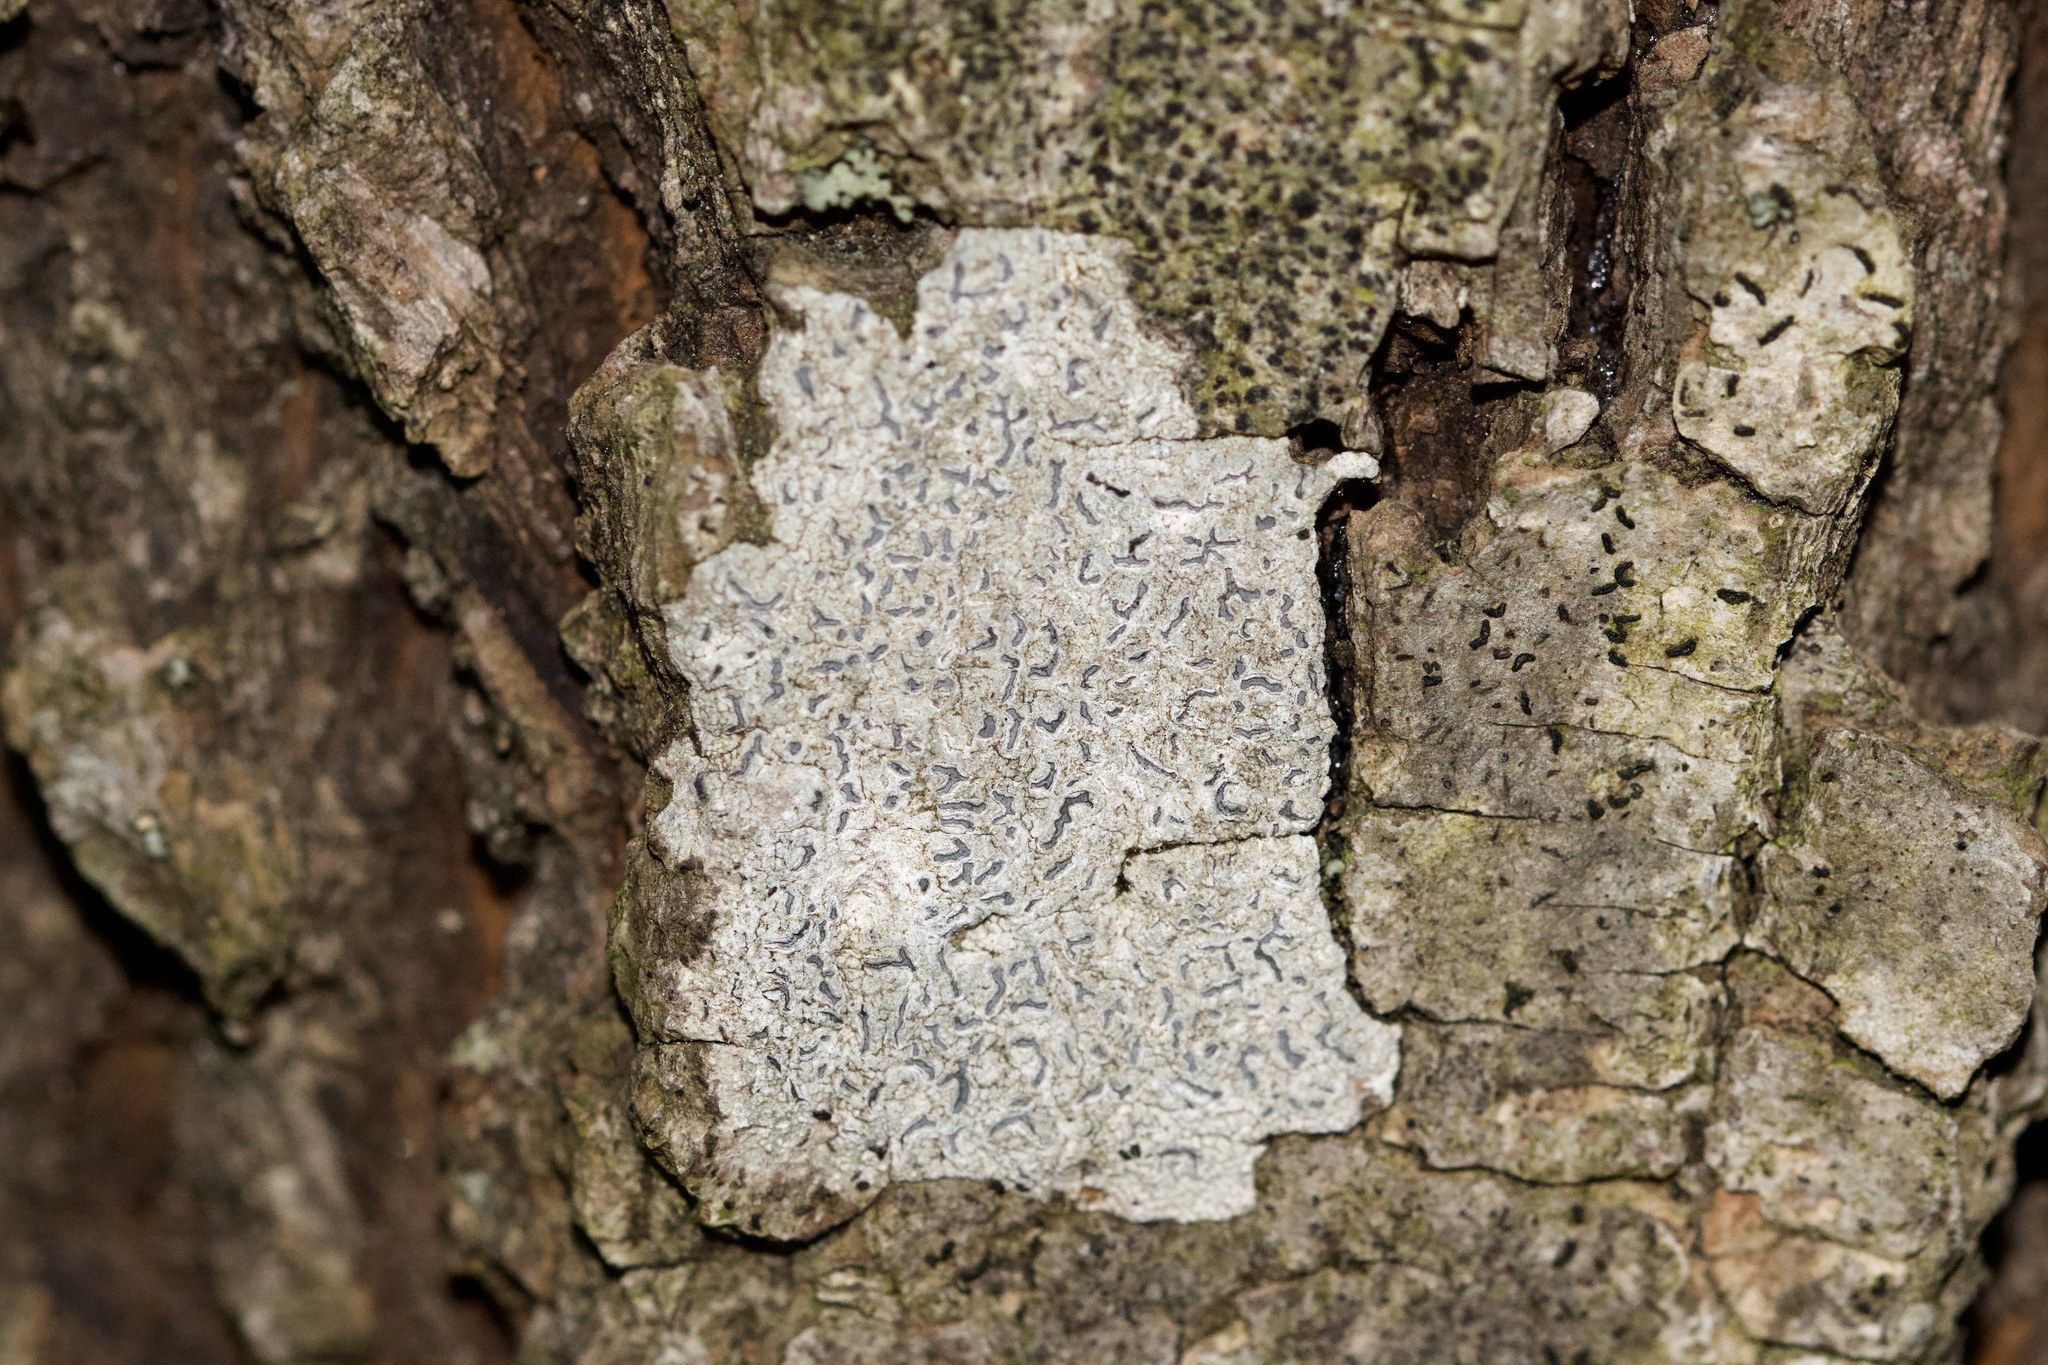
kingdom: Fungi
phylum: Ascomycota
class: Lecanoromycetes
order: Ostropales
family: Graphidaceae
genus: Graphis
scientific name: Graphis scripta
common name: Script lichen
